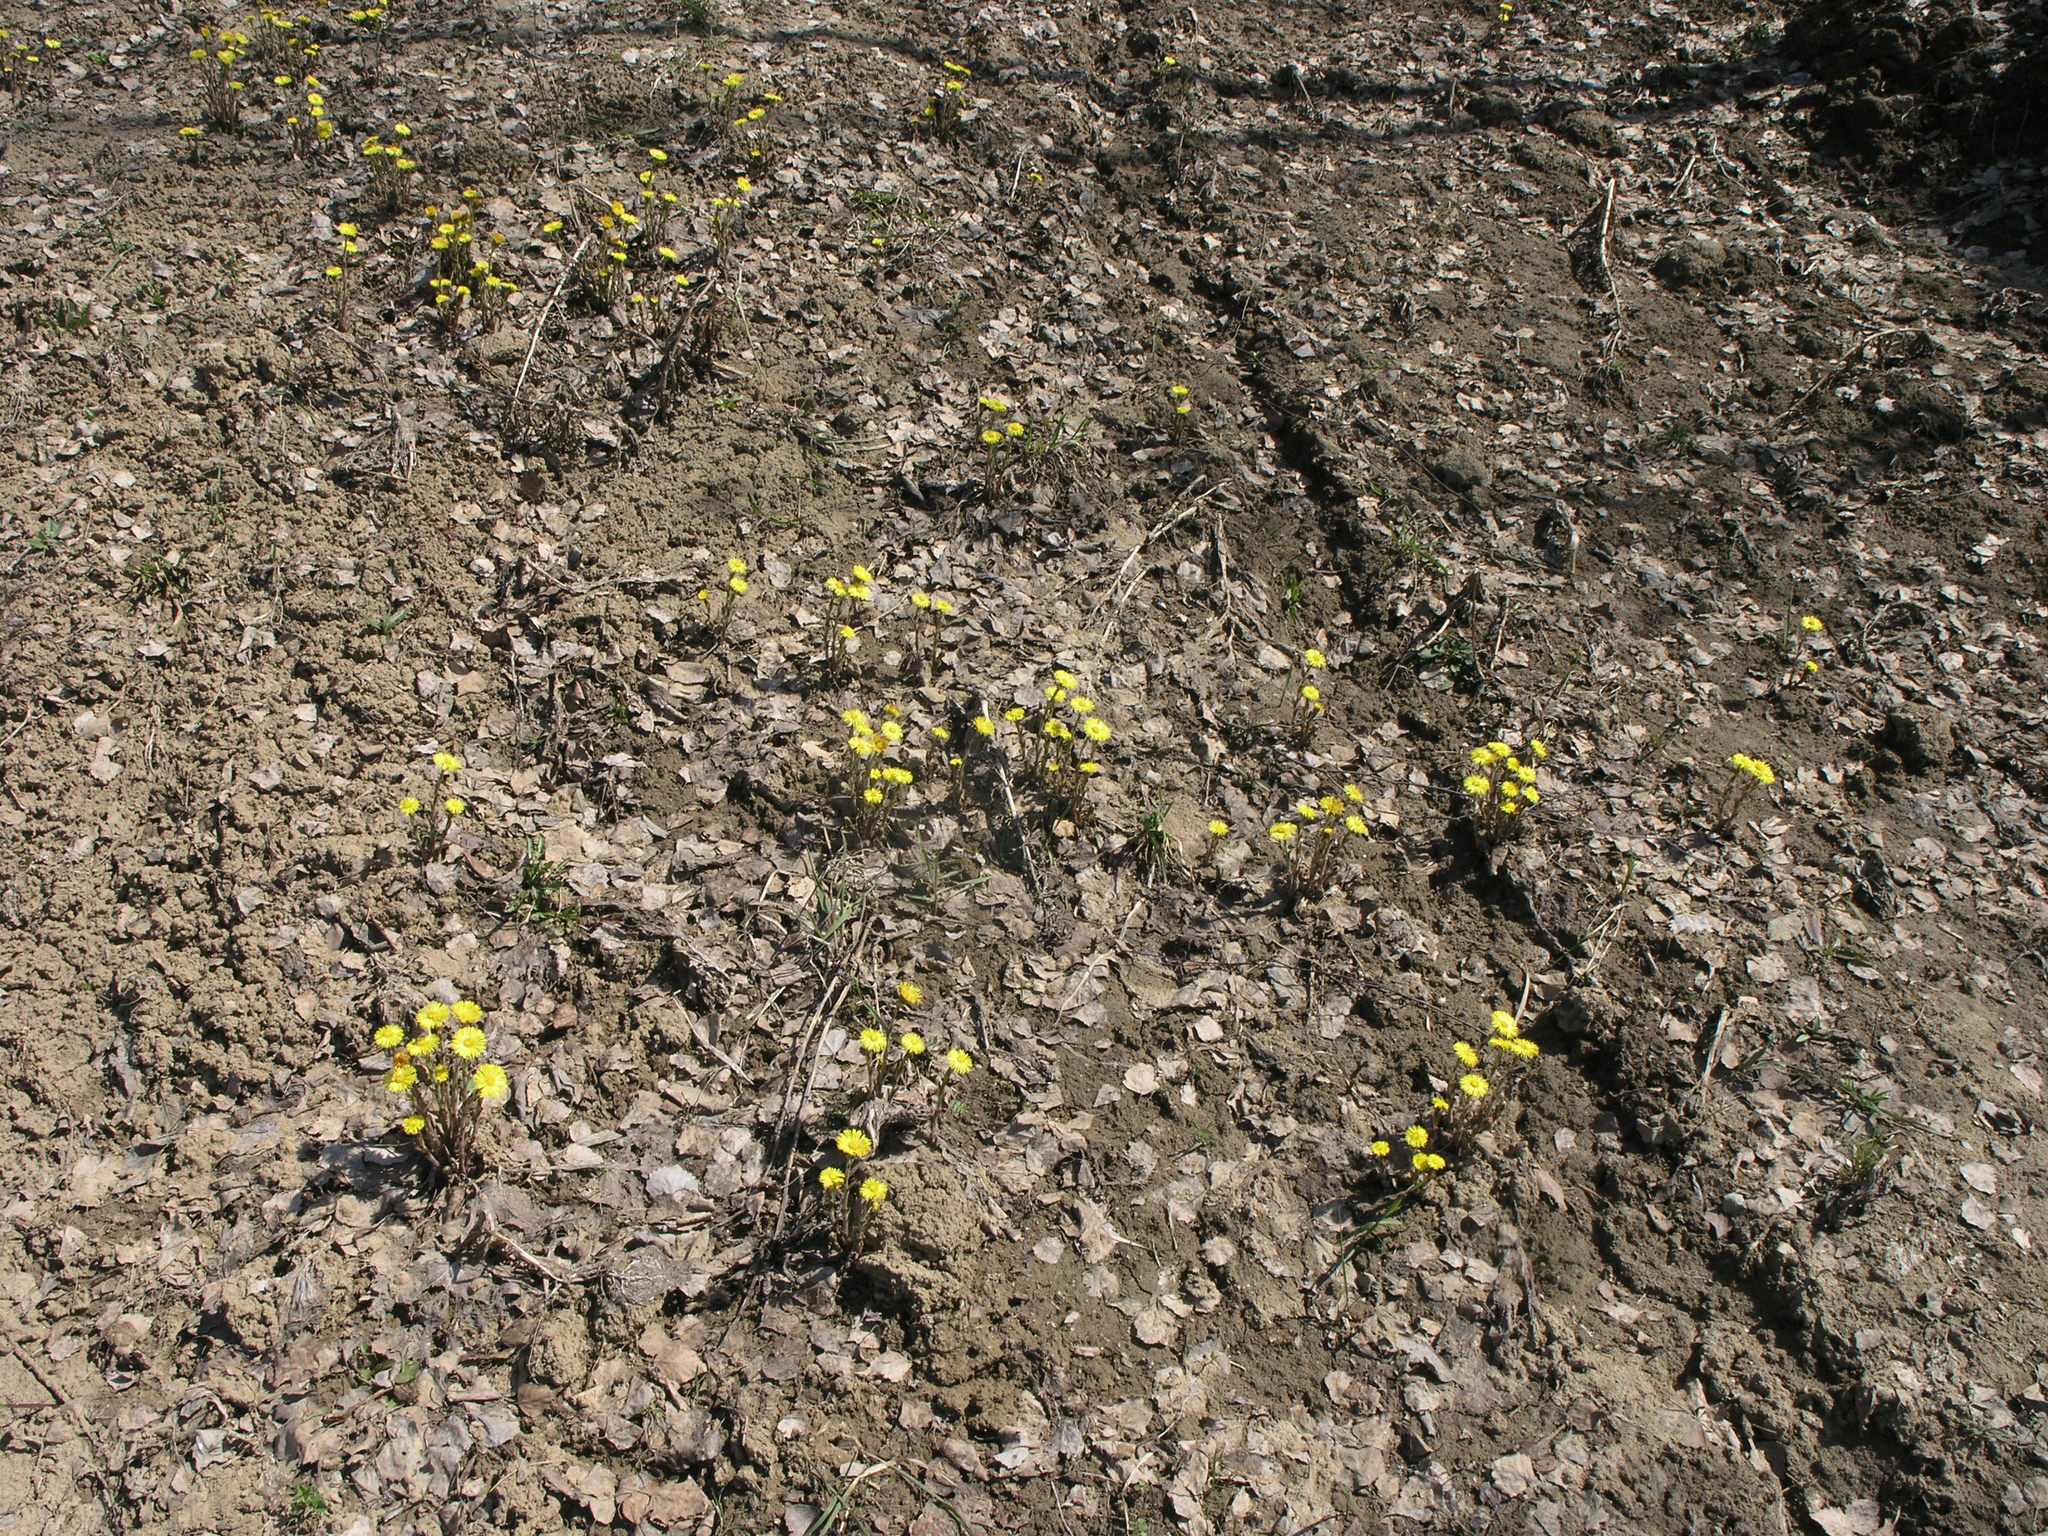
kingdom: Plantae
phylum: Tracheophyta
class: Magnoliopsida
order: Asterales
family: Asteraceae
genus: Tussilago
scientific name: Tussilago farfara
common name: Coltsfoot
